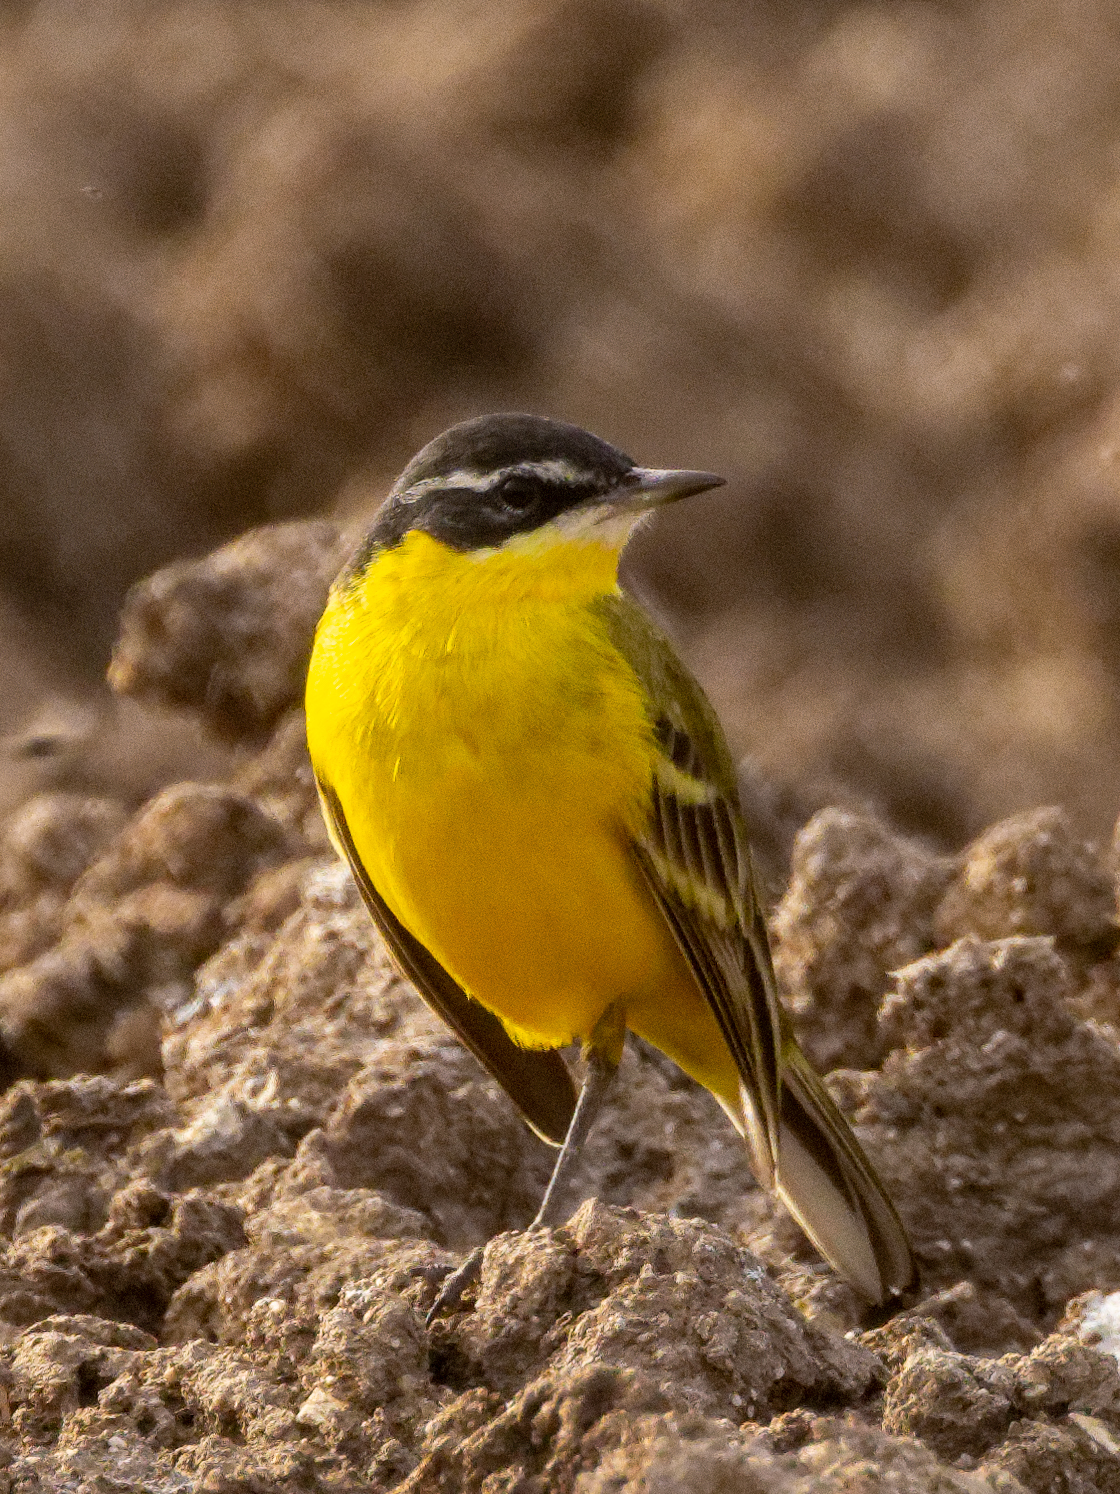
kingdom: Animalia
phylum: Chordata
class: Aves
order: Passeriformes
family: Motacillidae
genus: Motacilla
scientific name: Motacilla flava
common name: Western yellow wagtail
